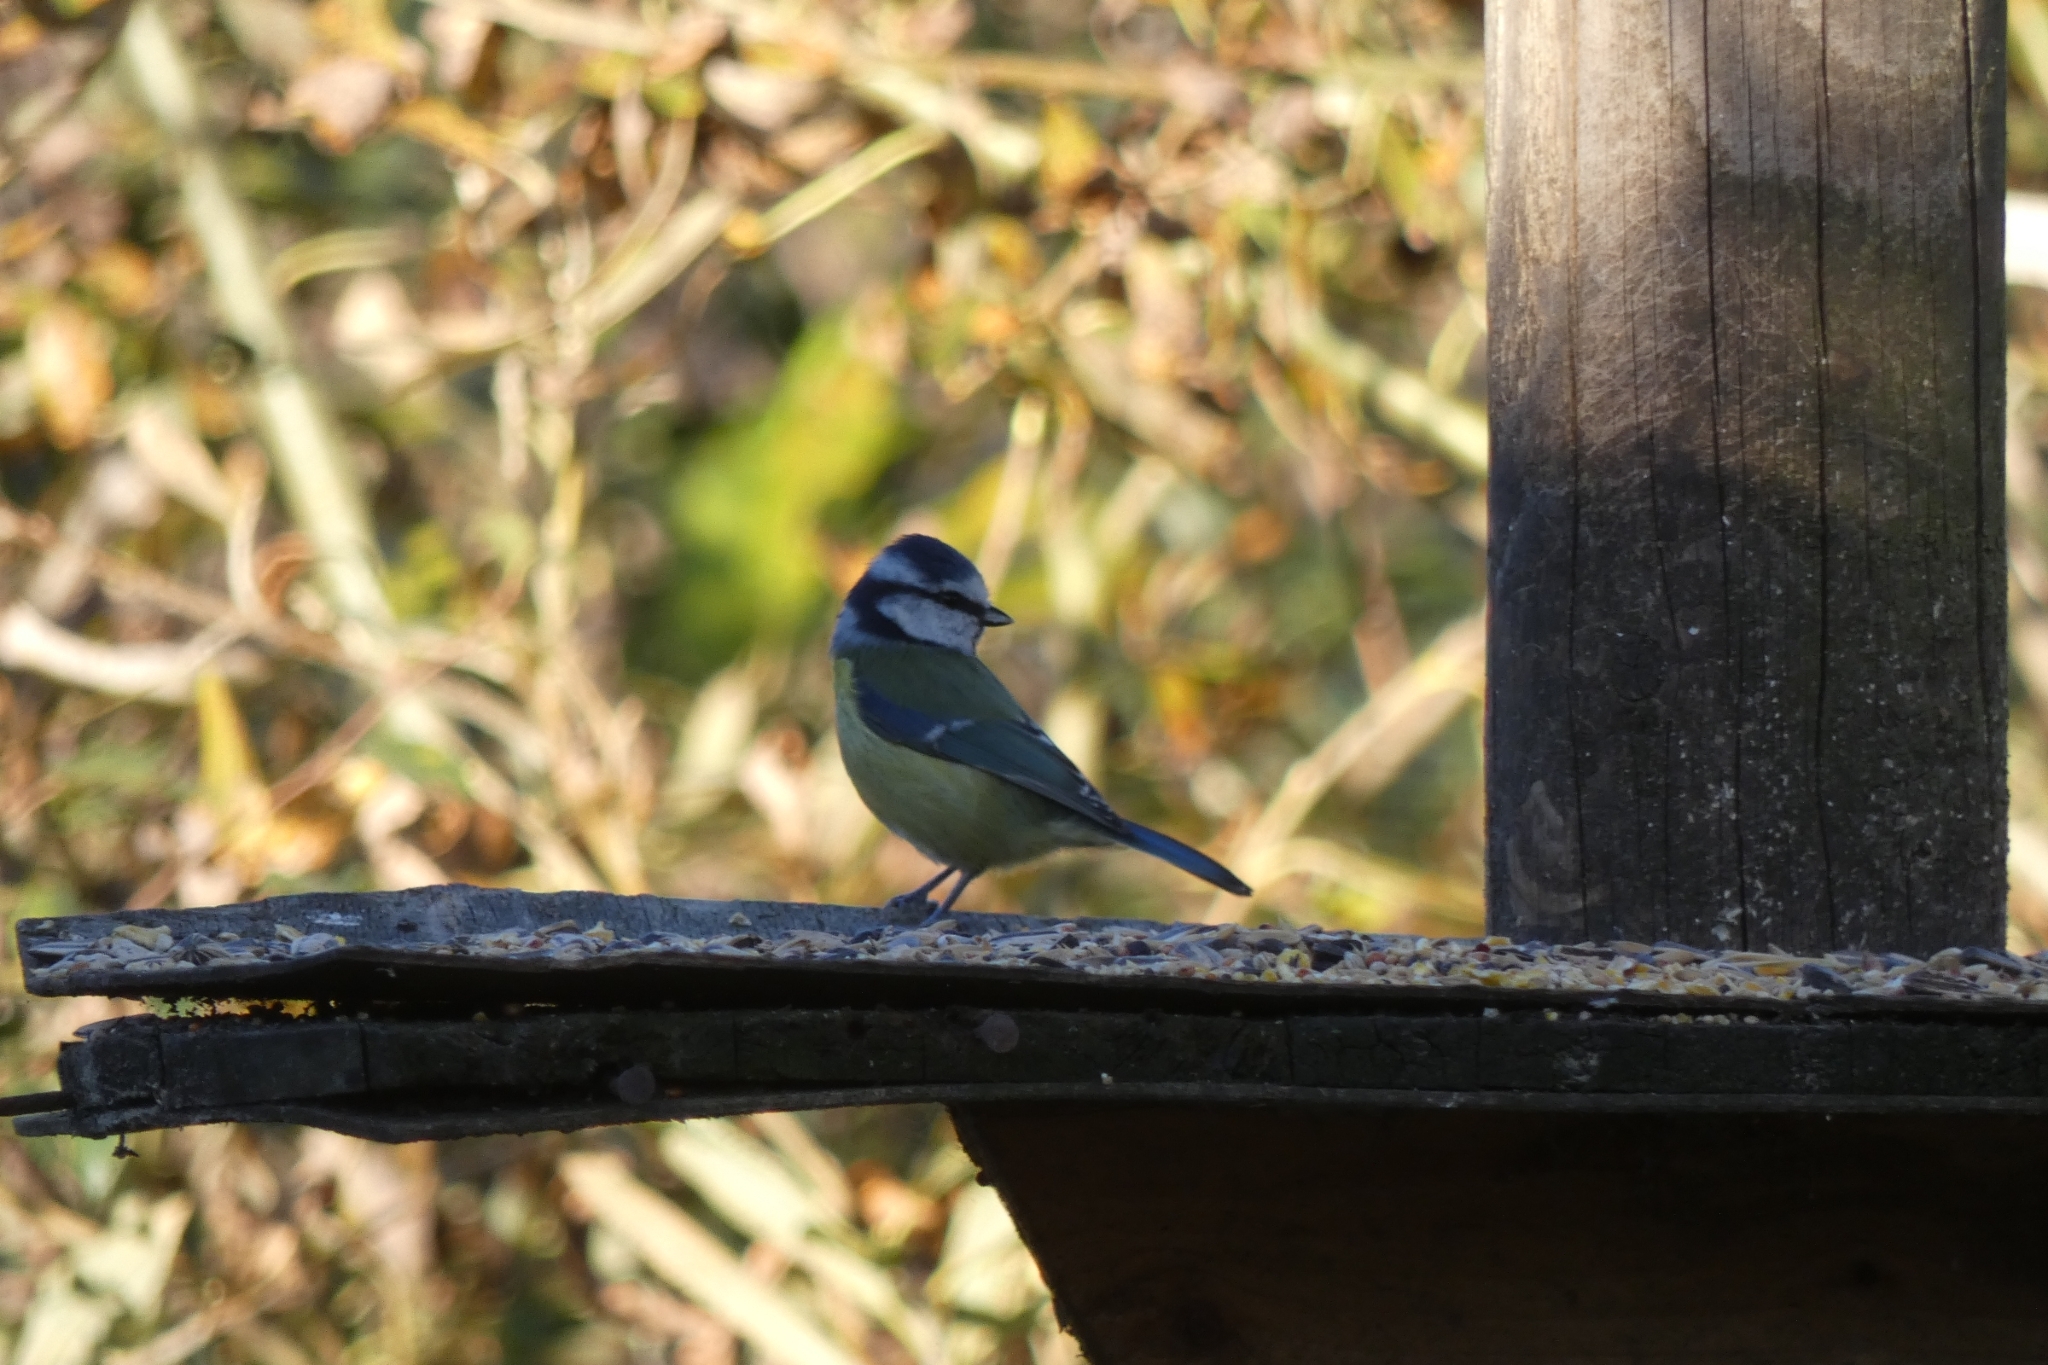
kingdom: Animalia
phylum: Chordata
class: Aves
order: Passeriformes
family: Paridae
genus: Cyanistes
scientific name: Cyanistes caeruleus
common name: Eurasian blue tit
